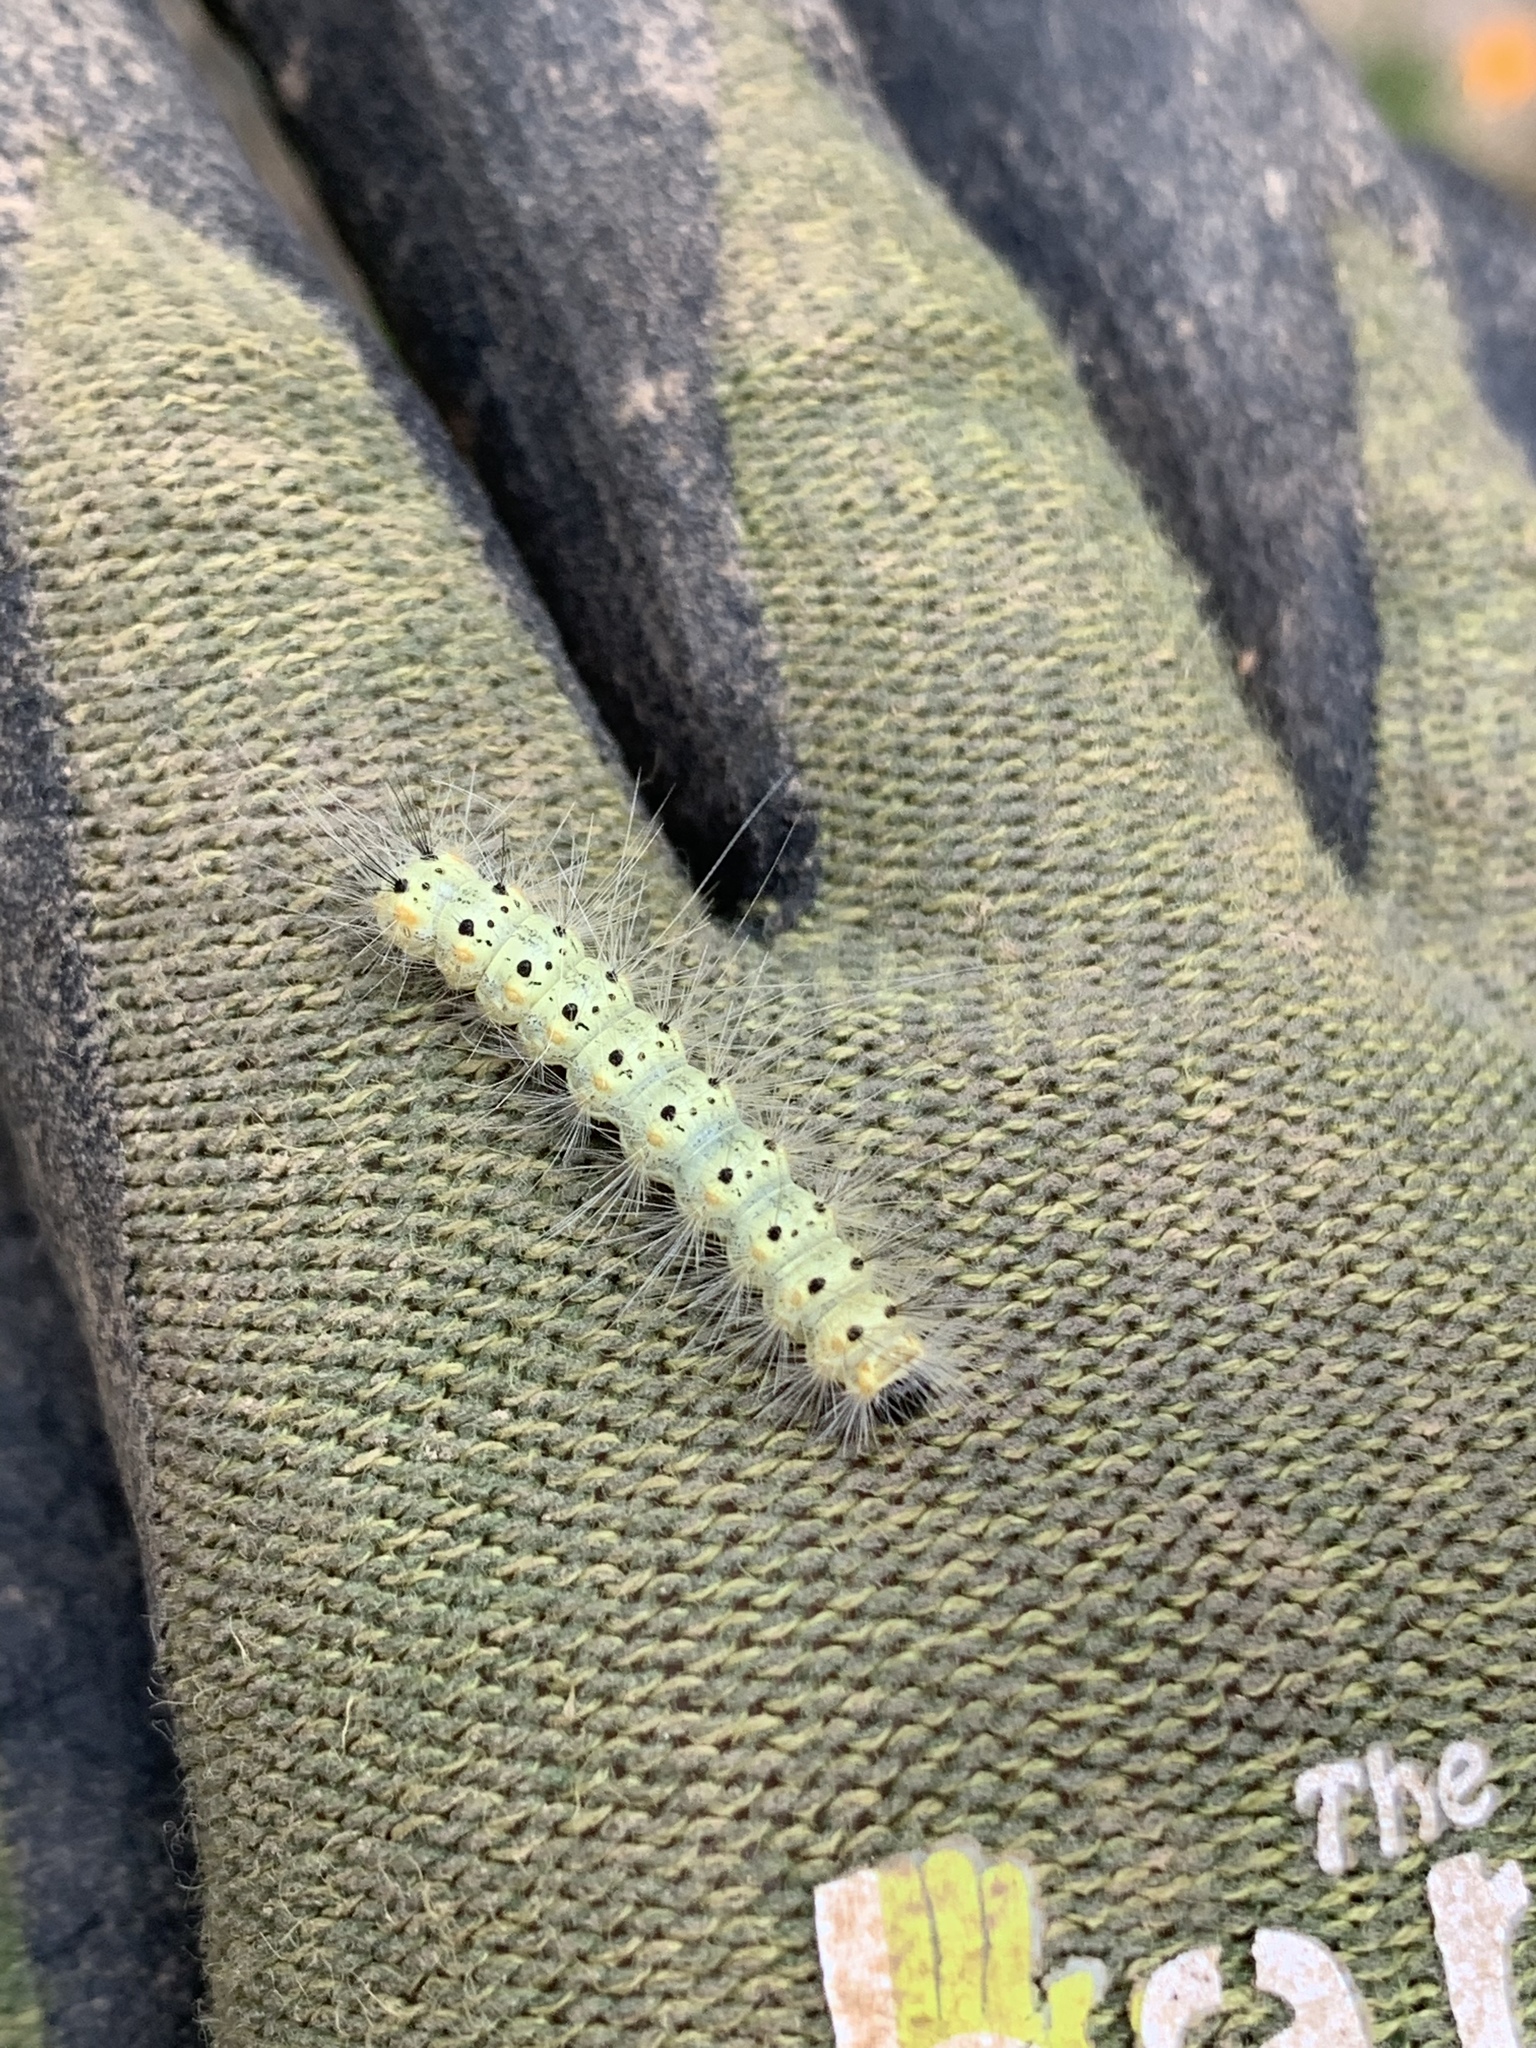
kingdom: Animalia
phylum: Arthropoda
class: Insecta
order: Lepidoptera
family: Erebidae
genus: Hyphantria
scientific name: Hyphantria cunea
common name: American white moth
